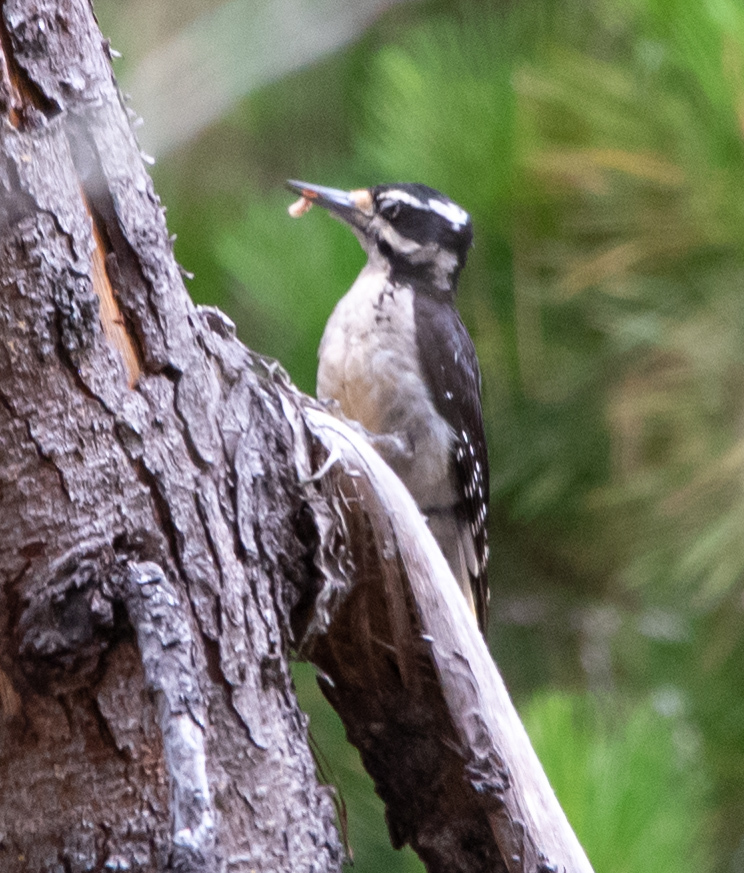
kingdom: Animalia
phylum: Chordata
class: Aves
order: Piciformes
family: Picidae
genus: Leuconotopicus
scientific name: Leuconotopicus villosus
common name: Hairy woodpecker
